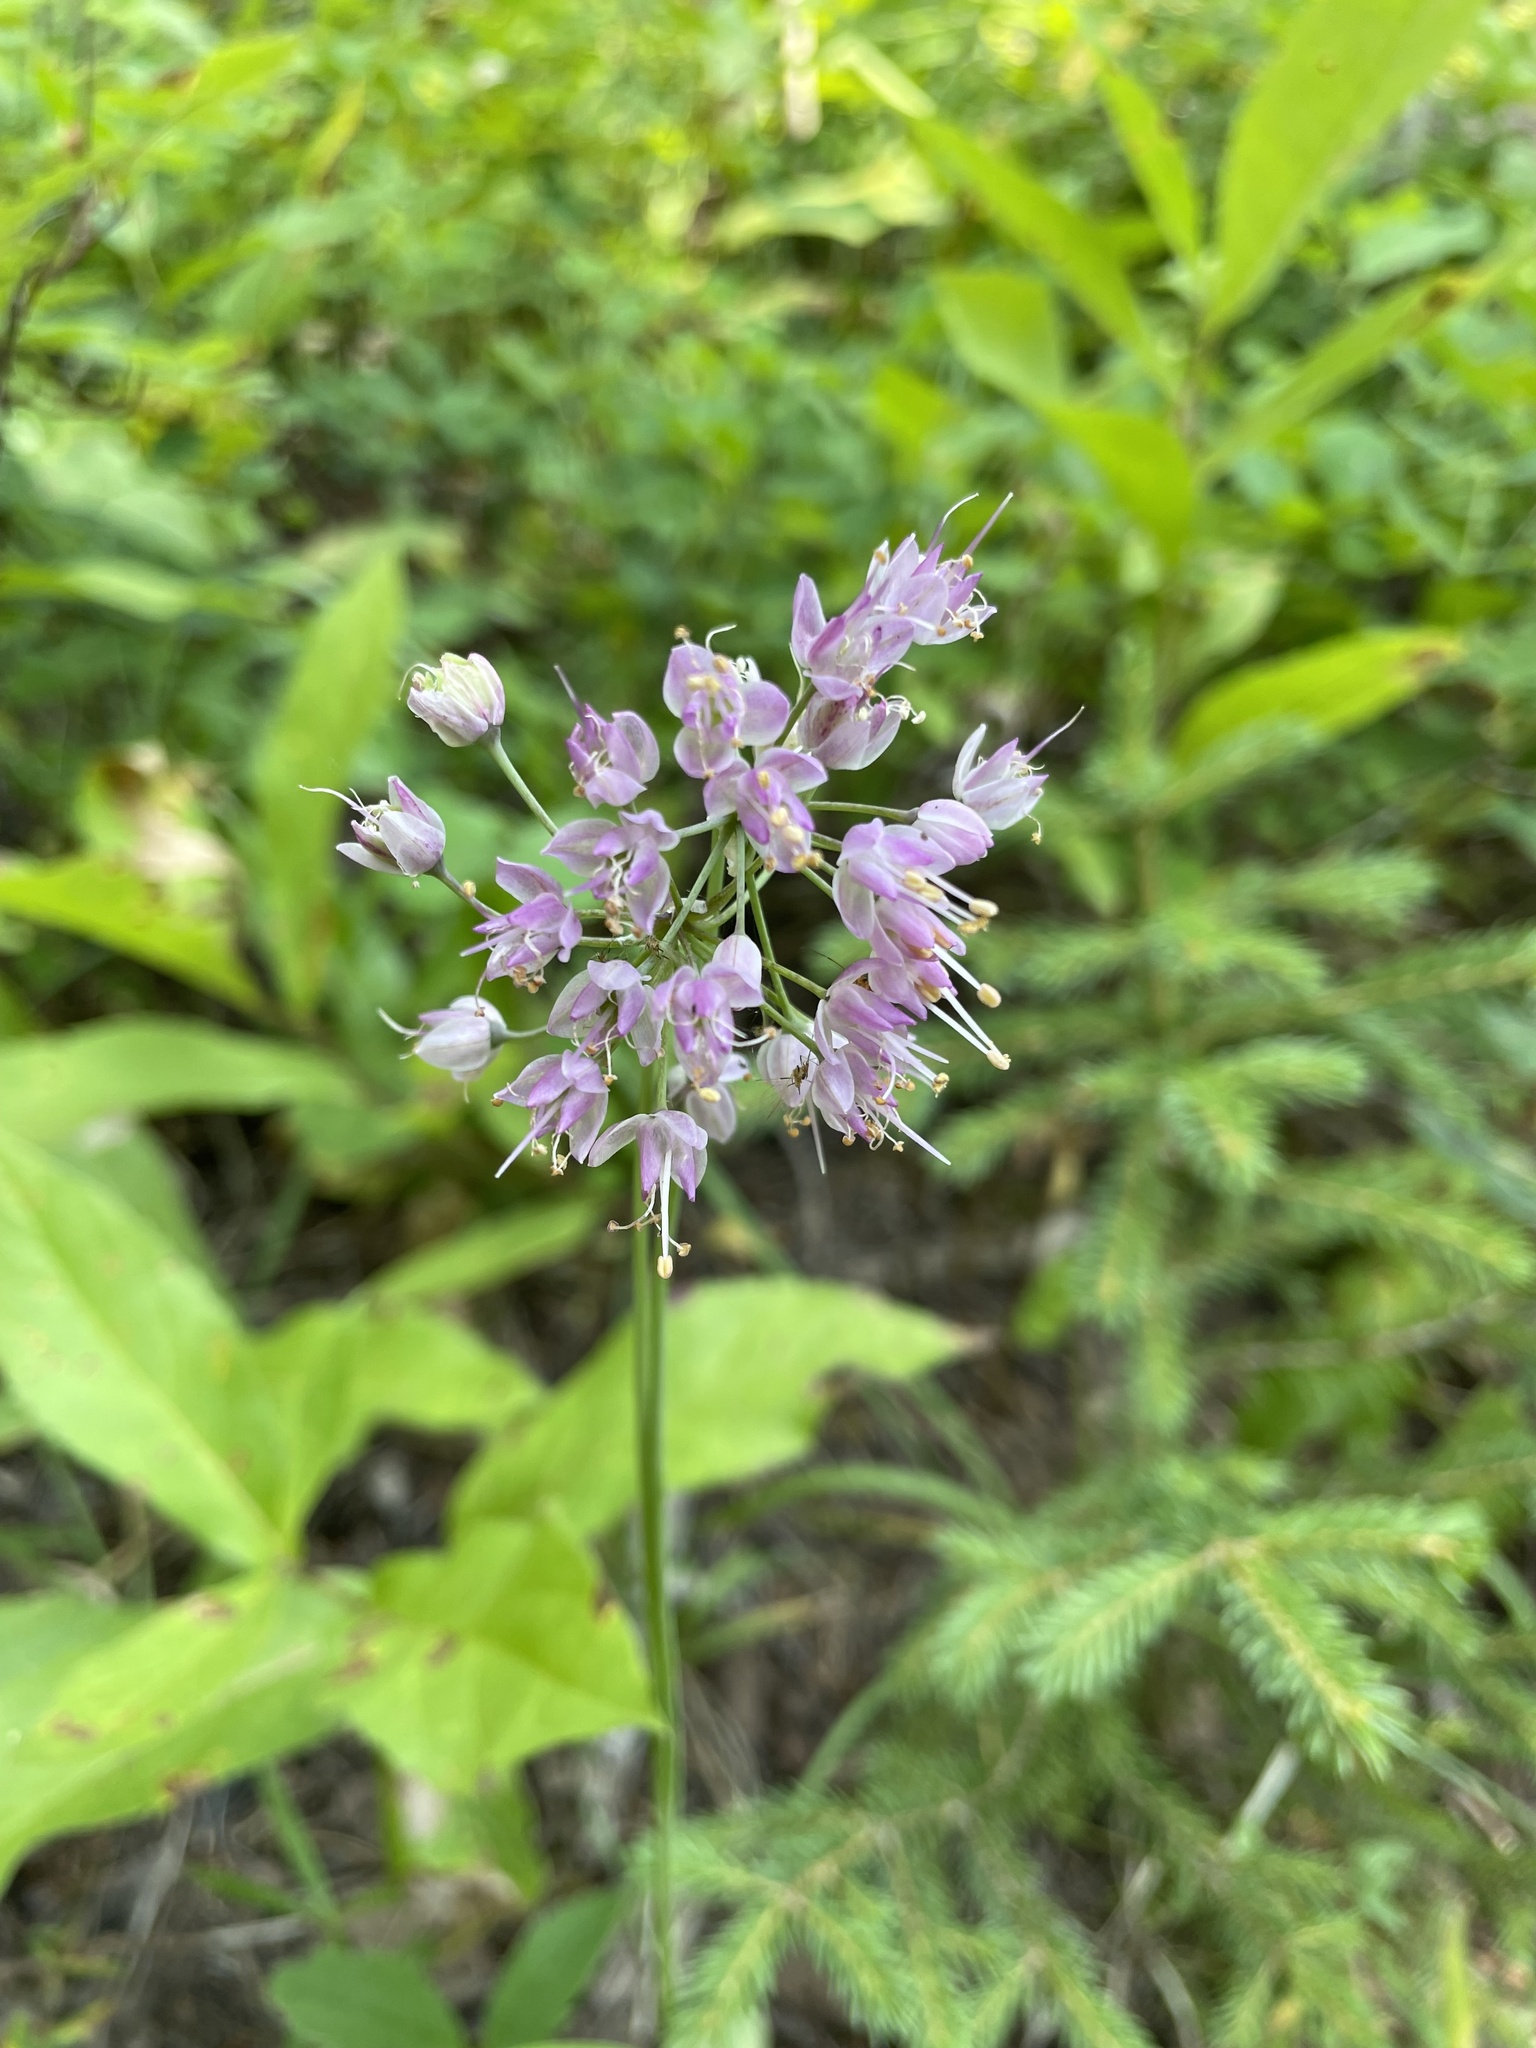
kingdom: Plantae
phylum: Tracheophyta
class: Liliopsida
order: Asparagales
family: Amaryllidaceae
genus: Allium
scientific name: Allium cernuum
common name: Nodding onion
